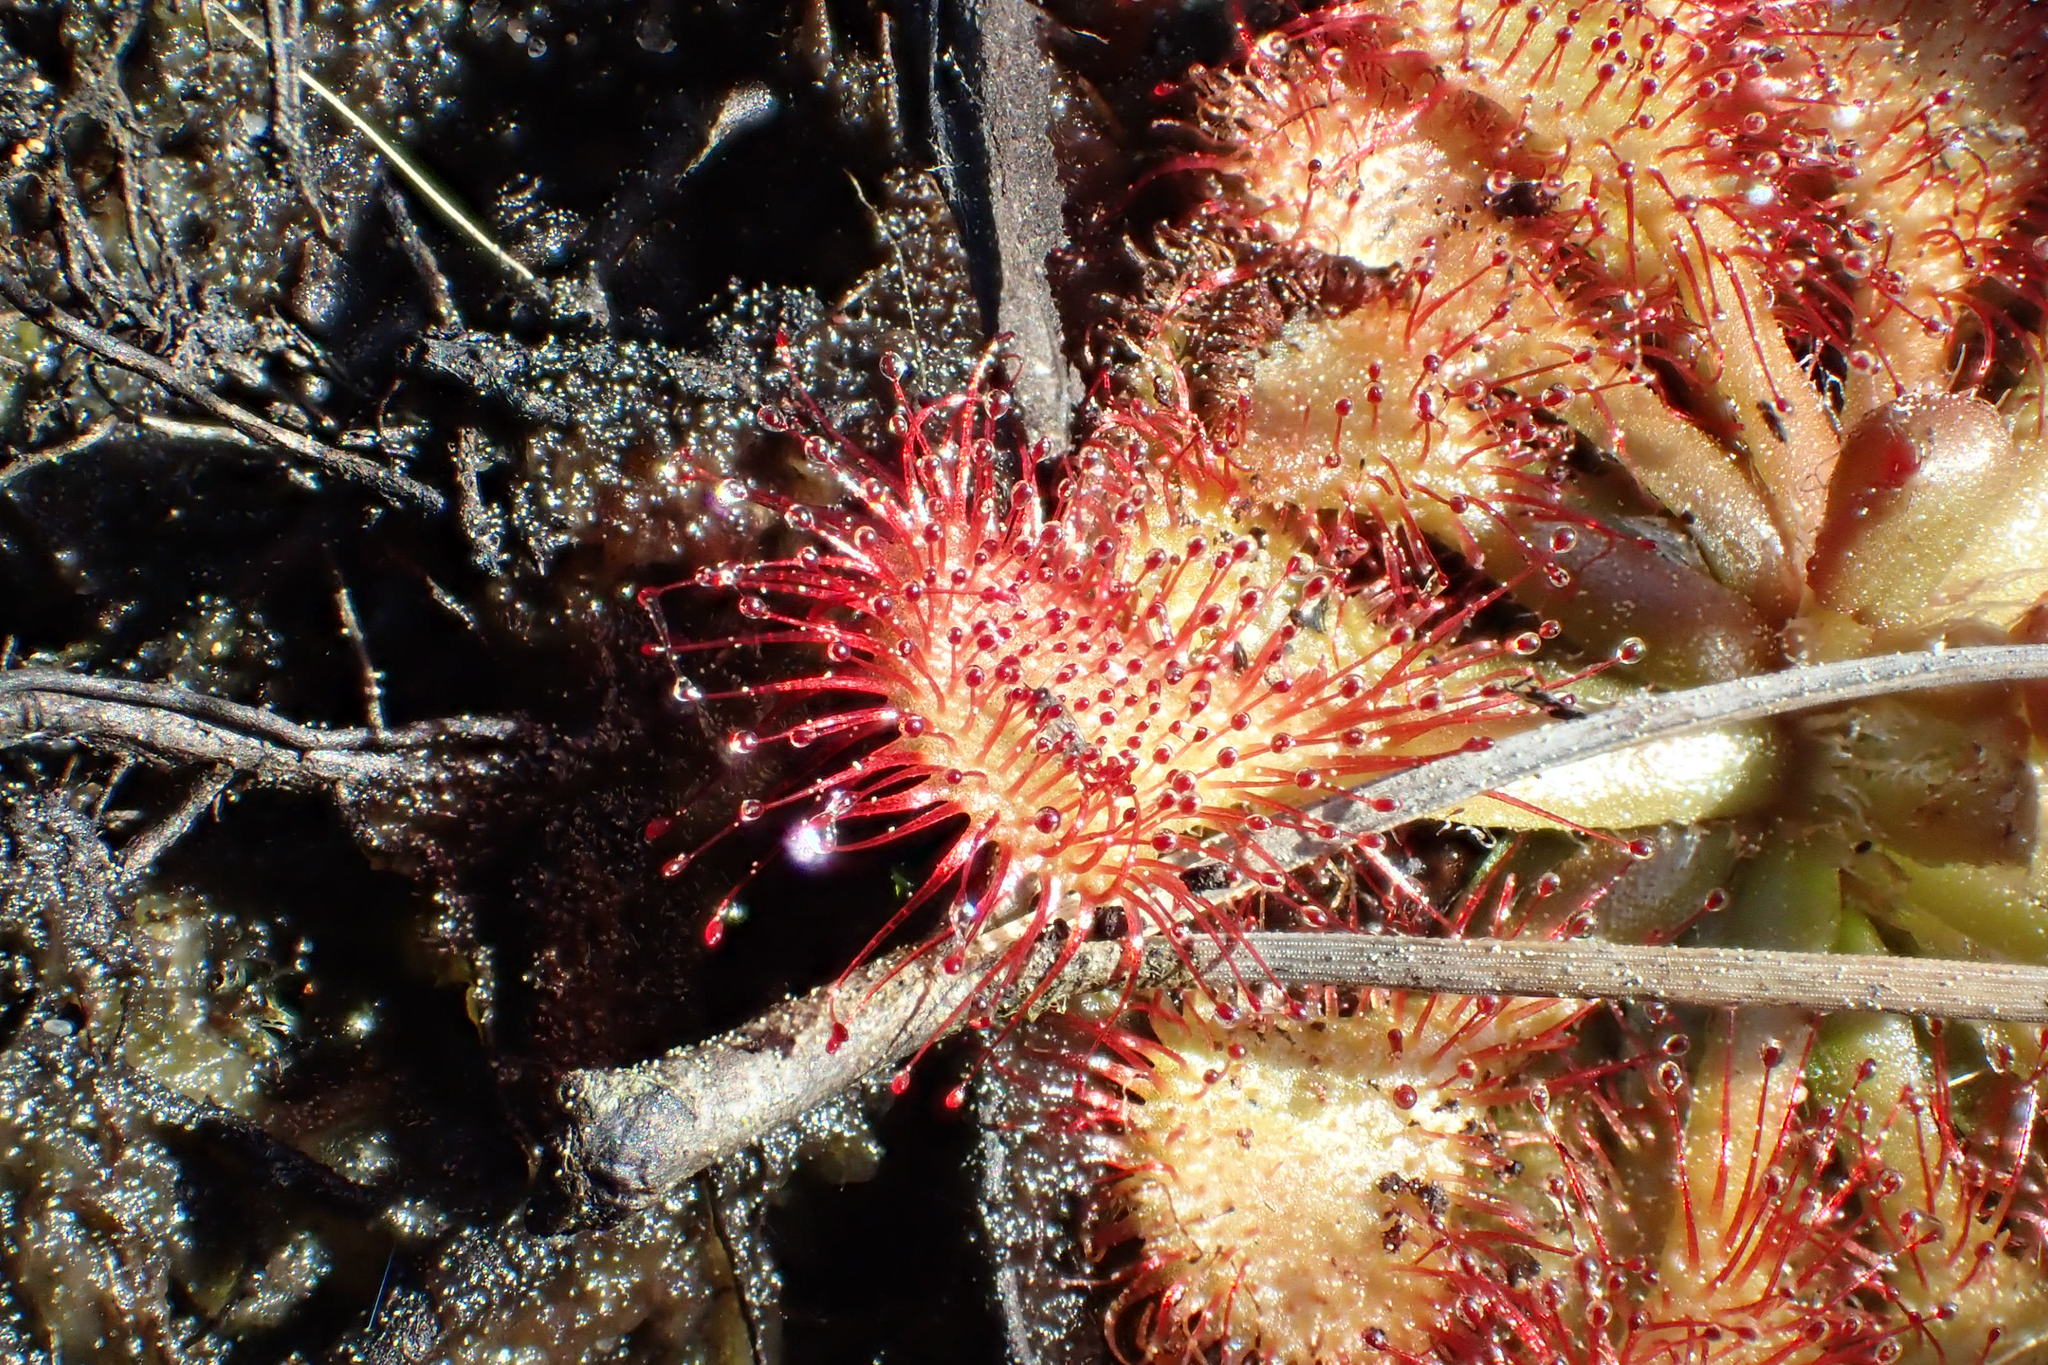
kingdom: Plantae
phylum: Tracheophyta
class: Magnoliopsida
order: Caryophyllales
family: Droseraceae
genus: Drosera
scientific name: Drosera capillaris
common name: Pink sundew
